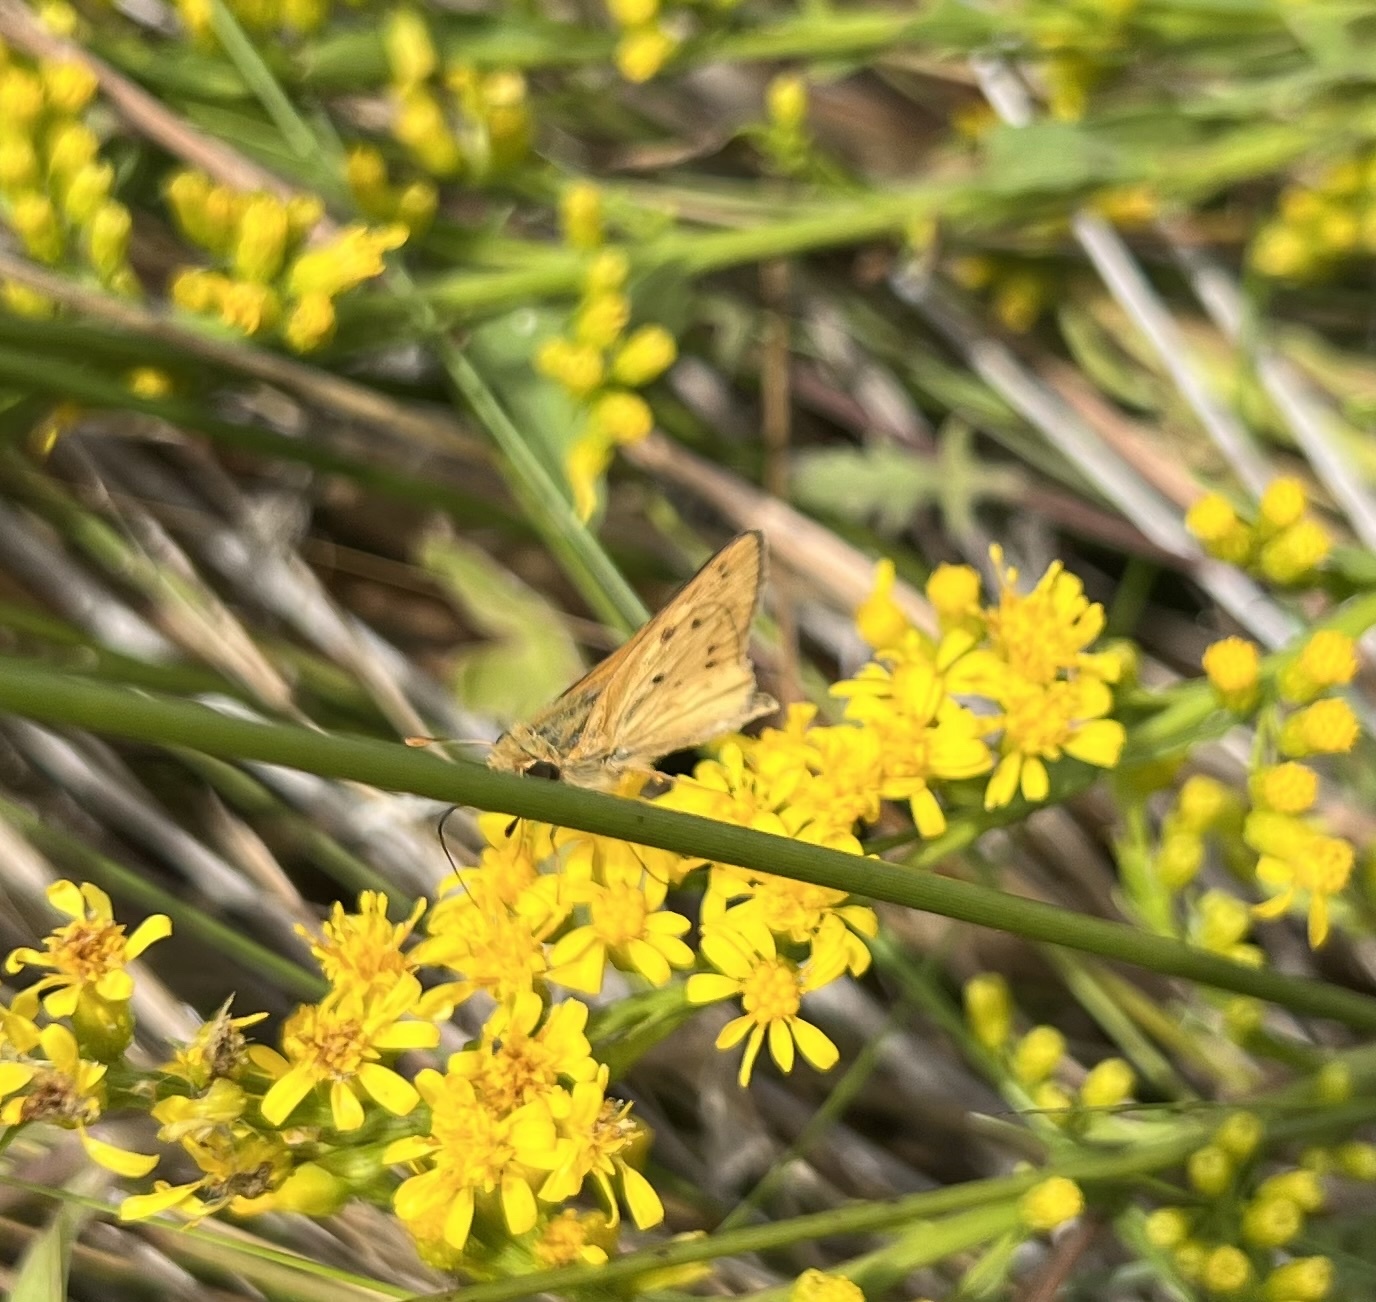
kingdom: Animalia
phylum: Arthropoda
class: Insecta
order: Lepidoptera
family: Hesperiidae
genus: Hylephila
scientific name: Hylephila phyleus
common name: Fiery skipper
